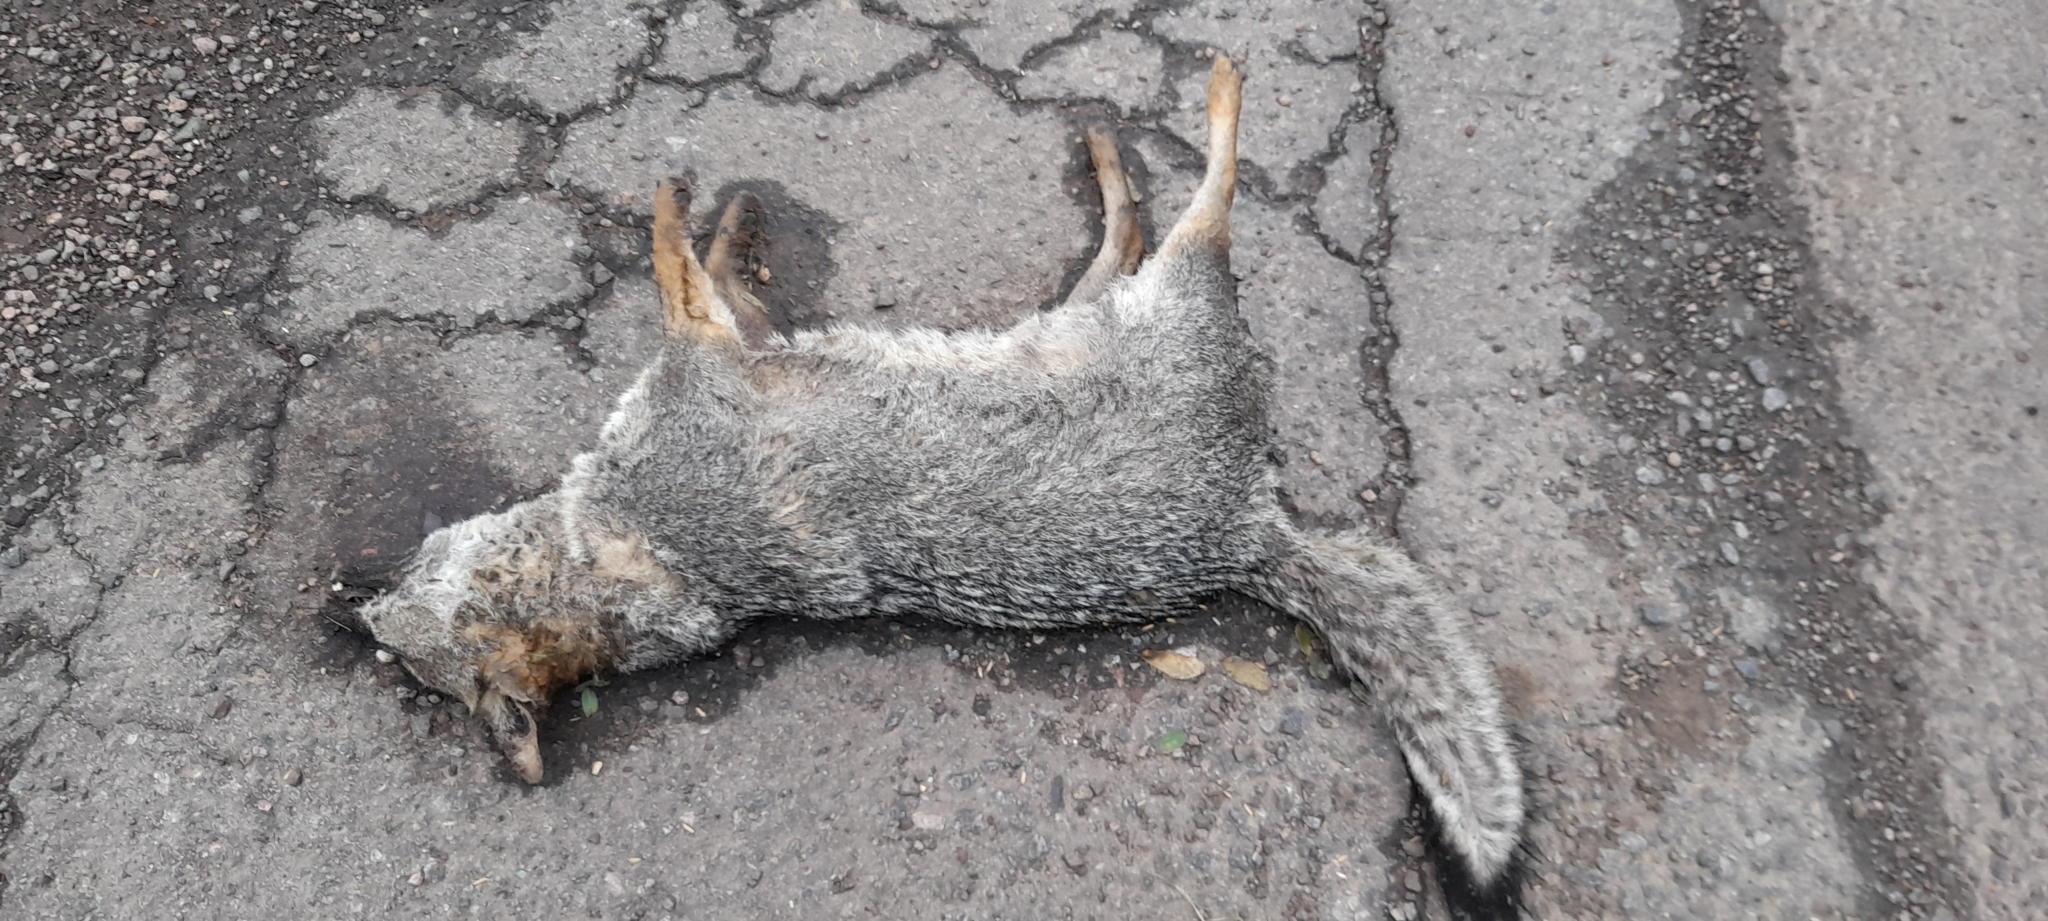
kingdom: Animalia
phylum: Chordata
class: Mammalia
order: Carnivora
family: Canidae
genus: Lycalopex
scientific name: Lycalopex gymnocercus
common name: Pampas fox
